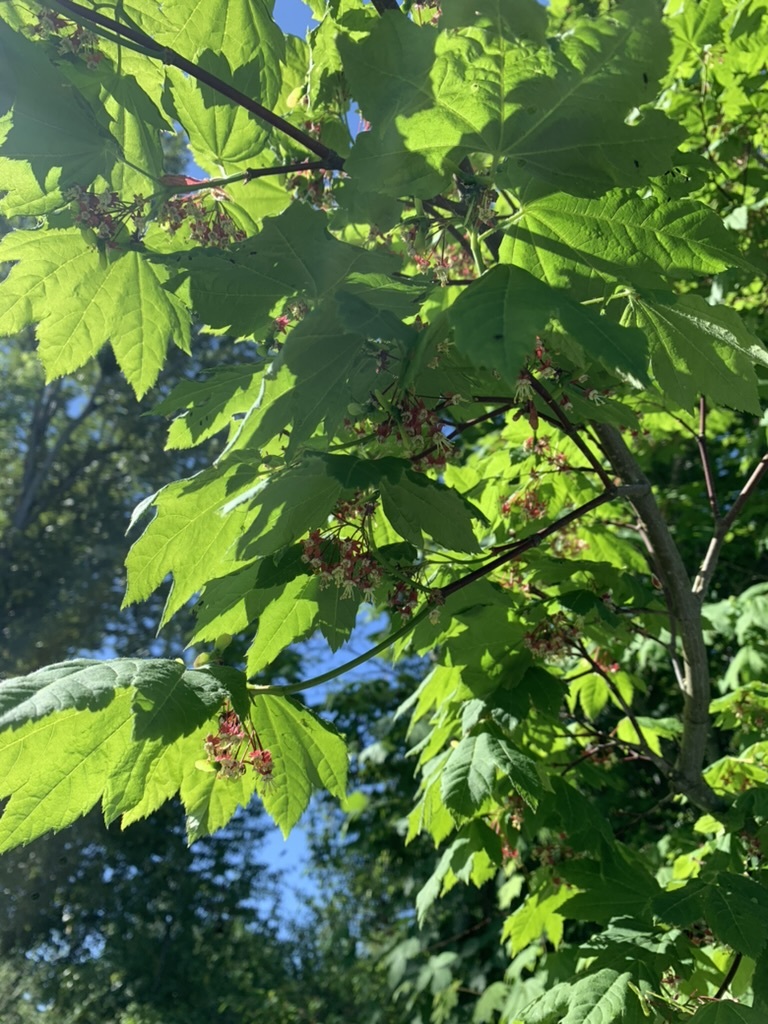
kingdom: Plantae
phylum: Tracheophyta
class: Magnoliopsida
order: Sapindales
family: Sapindaceae
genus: Acer
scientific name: Acer circinatum
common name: Vine maple
